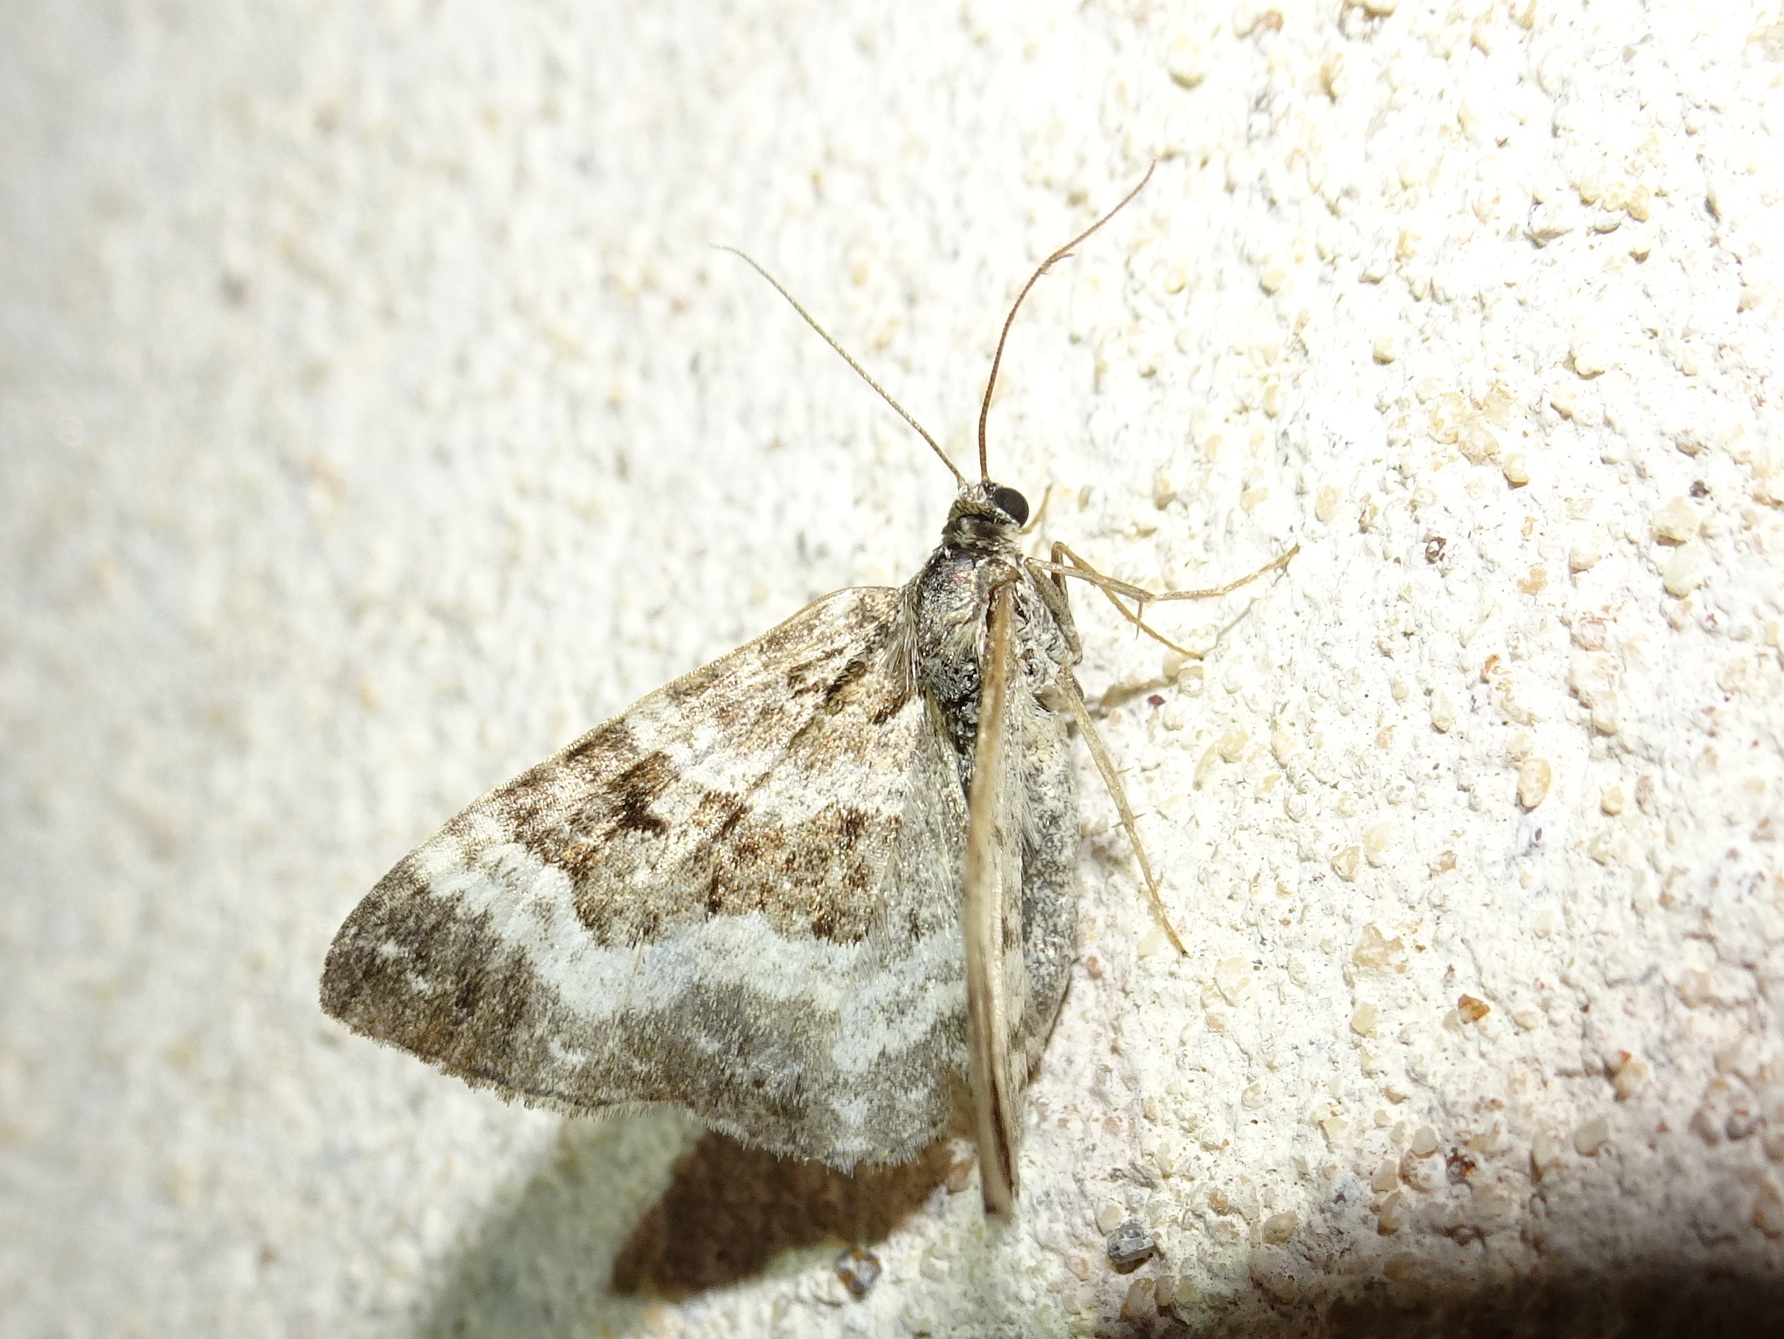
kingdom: Animalia
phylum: Arthropoda
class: Insecta
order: Lepidoptera
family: Geometridae
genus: Epirrhoe
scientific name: Epirrhoe alternata
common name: Common carpet
